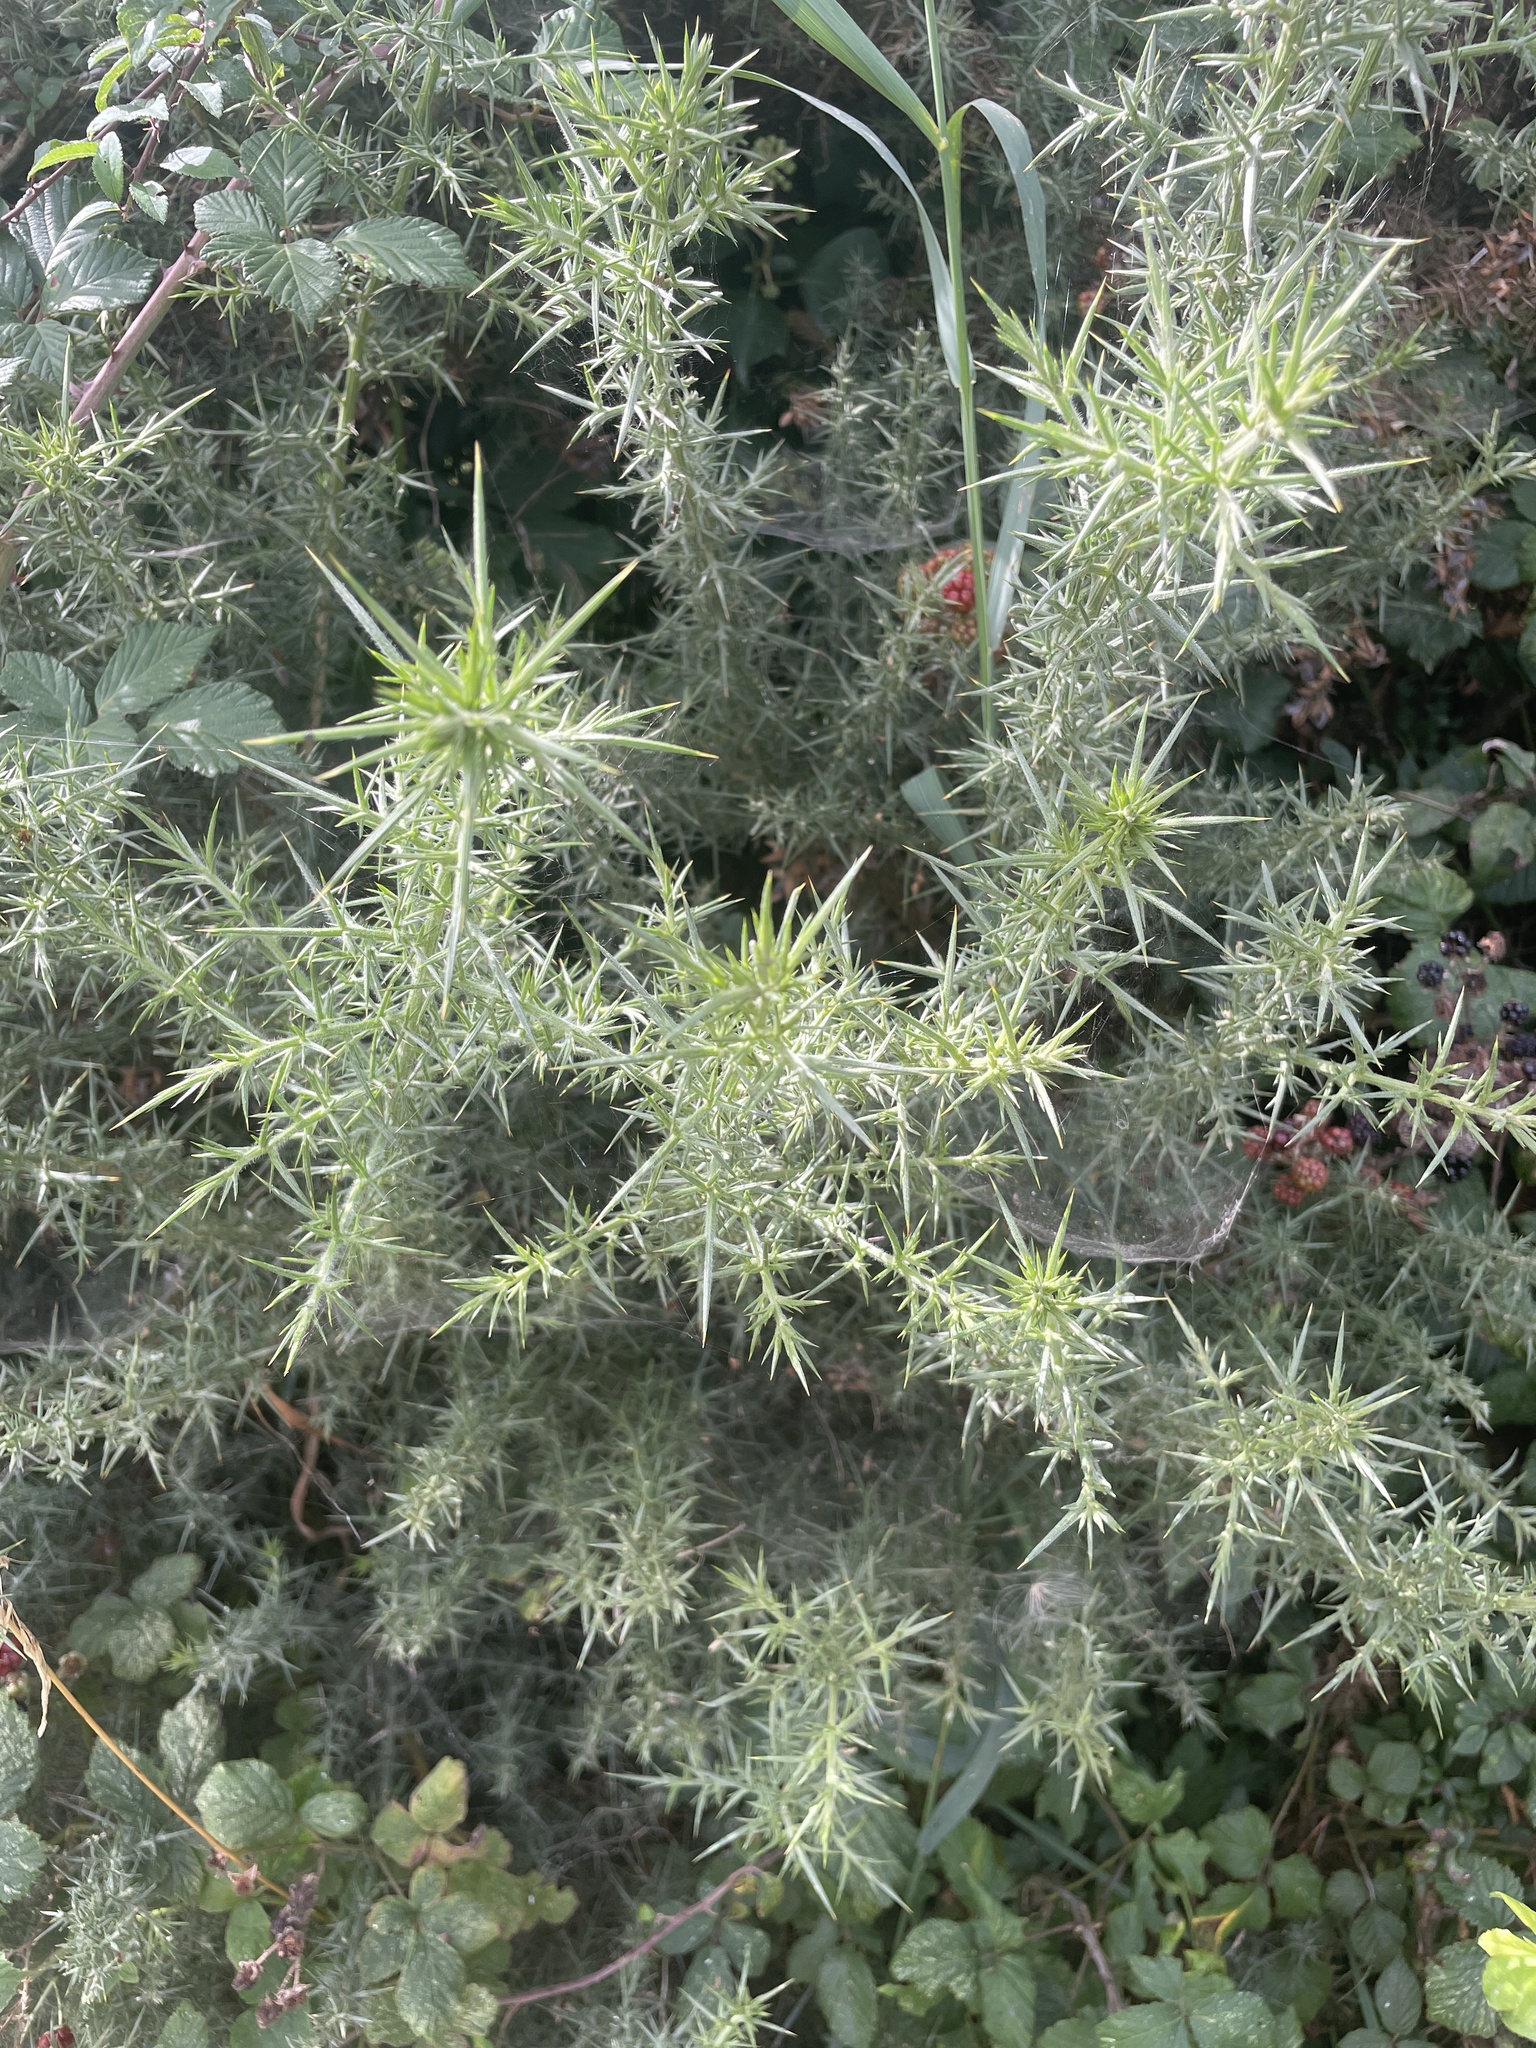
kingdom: Plantae
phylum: Tracheophyta
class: Magnoliopsida
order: Fabales
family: Fabaceae
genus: Ulex
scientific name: Ulex europaeus
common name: Common gorse
